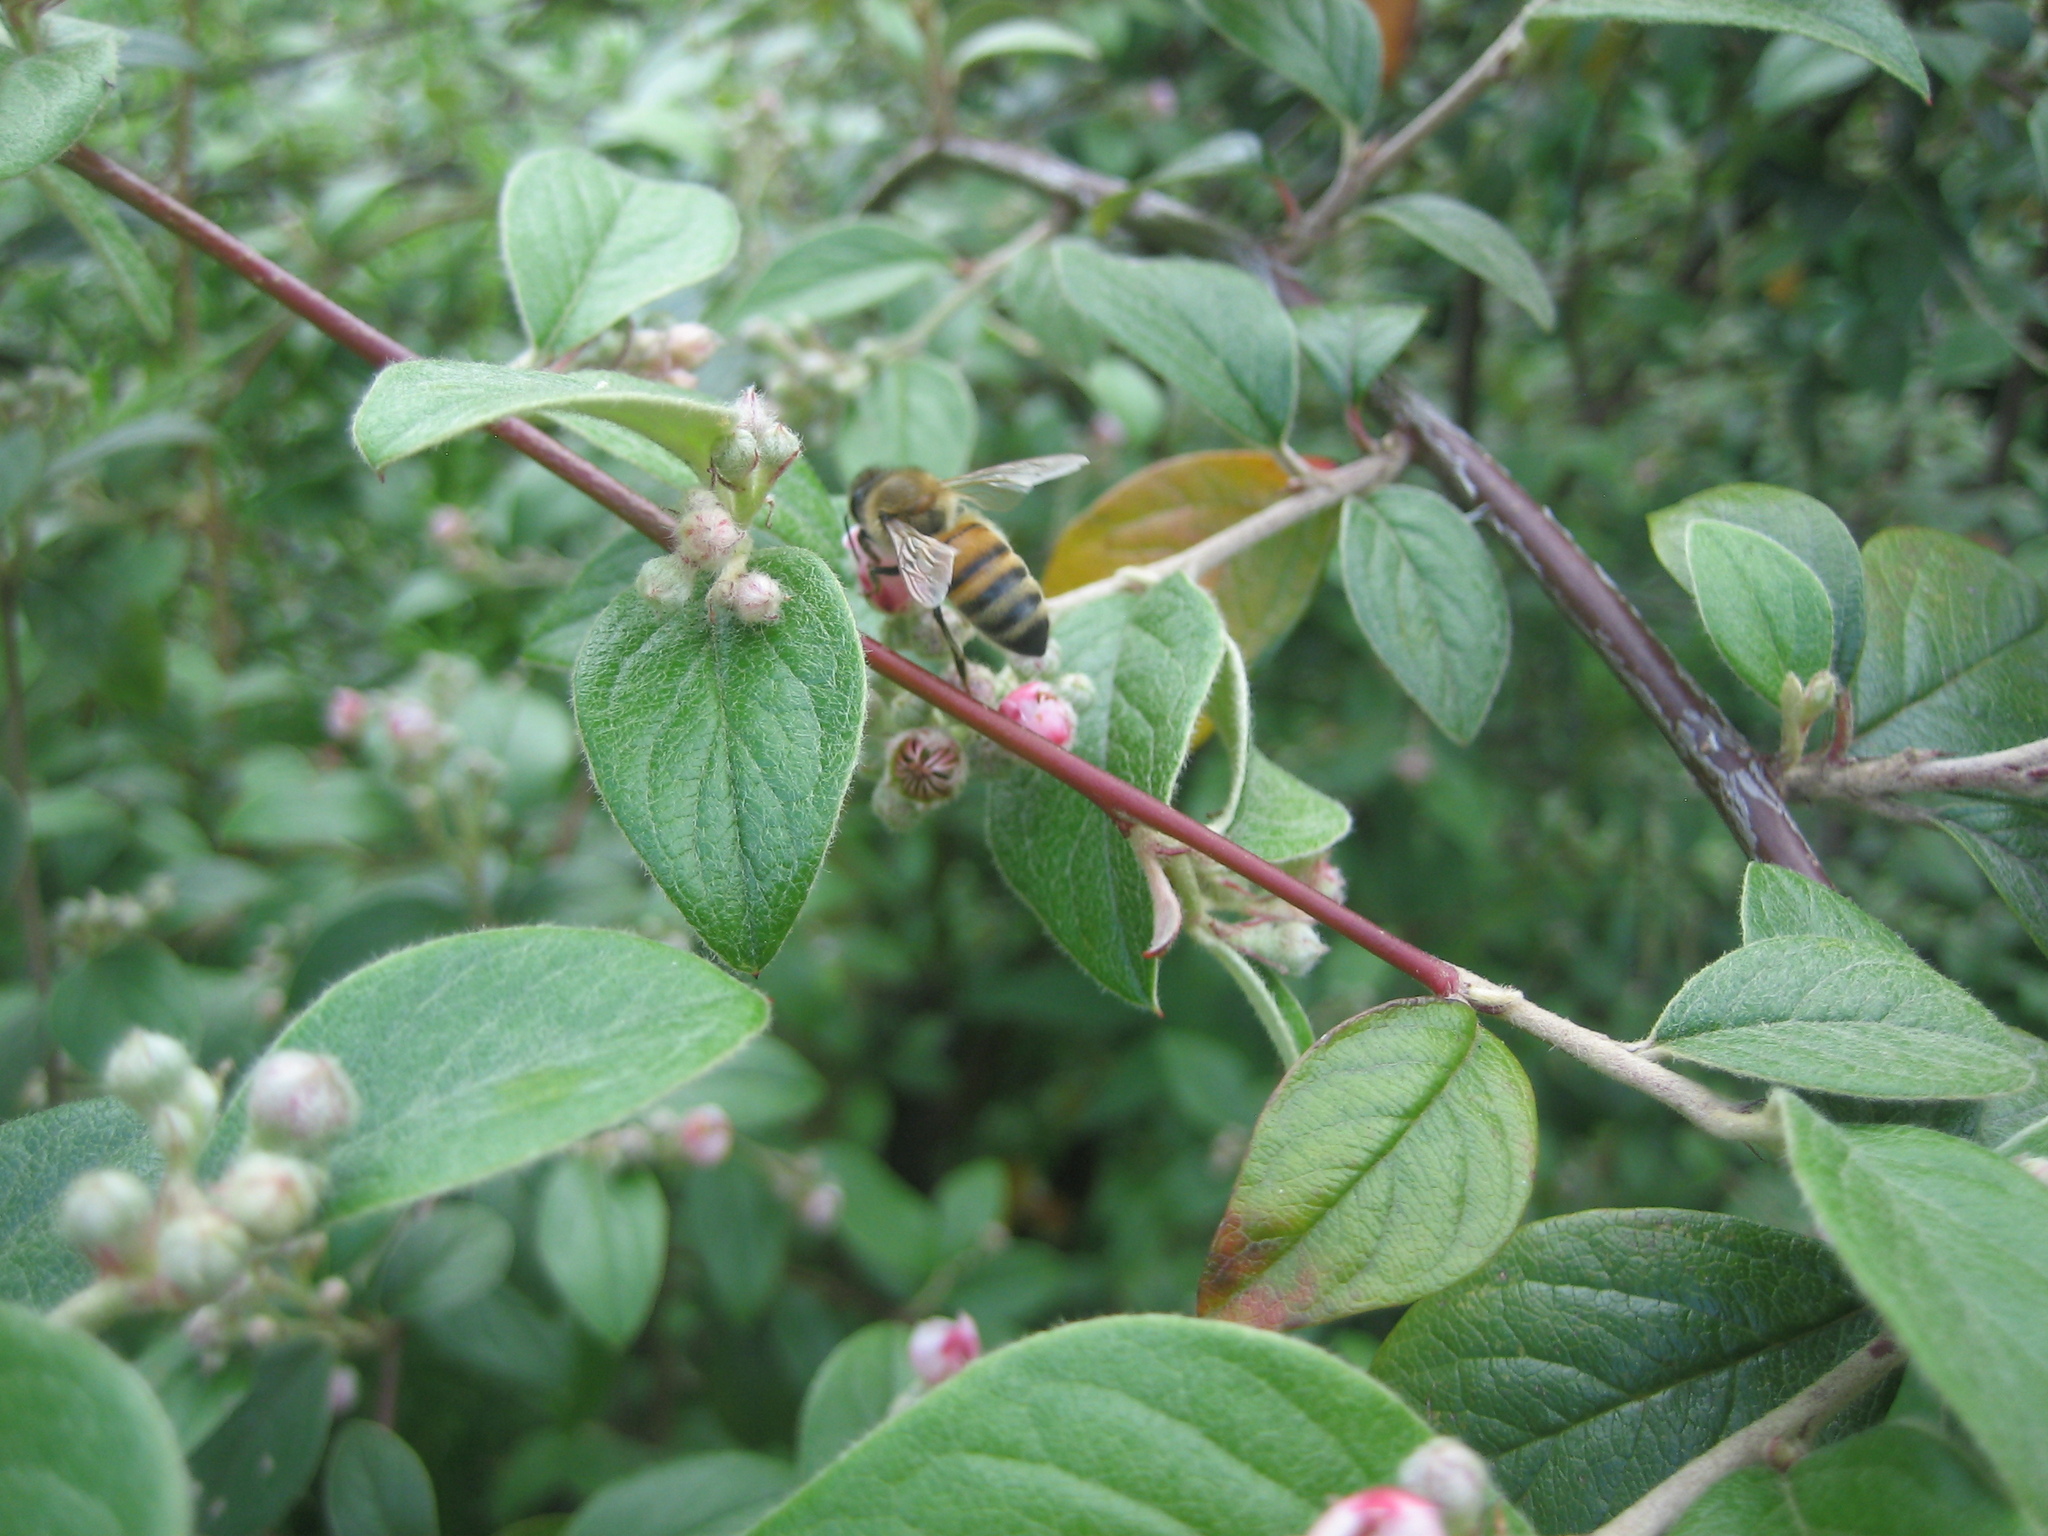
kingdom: Animalia
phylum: Arthropoda
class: Insecta
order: Hymenoptera
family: Apidae
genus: Apis
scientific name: Apis mellifera
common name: Honey bee
